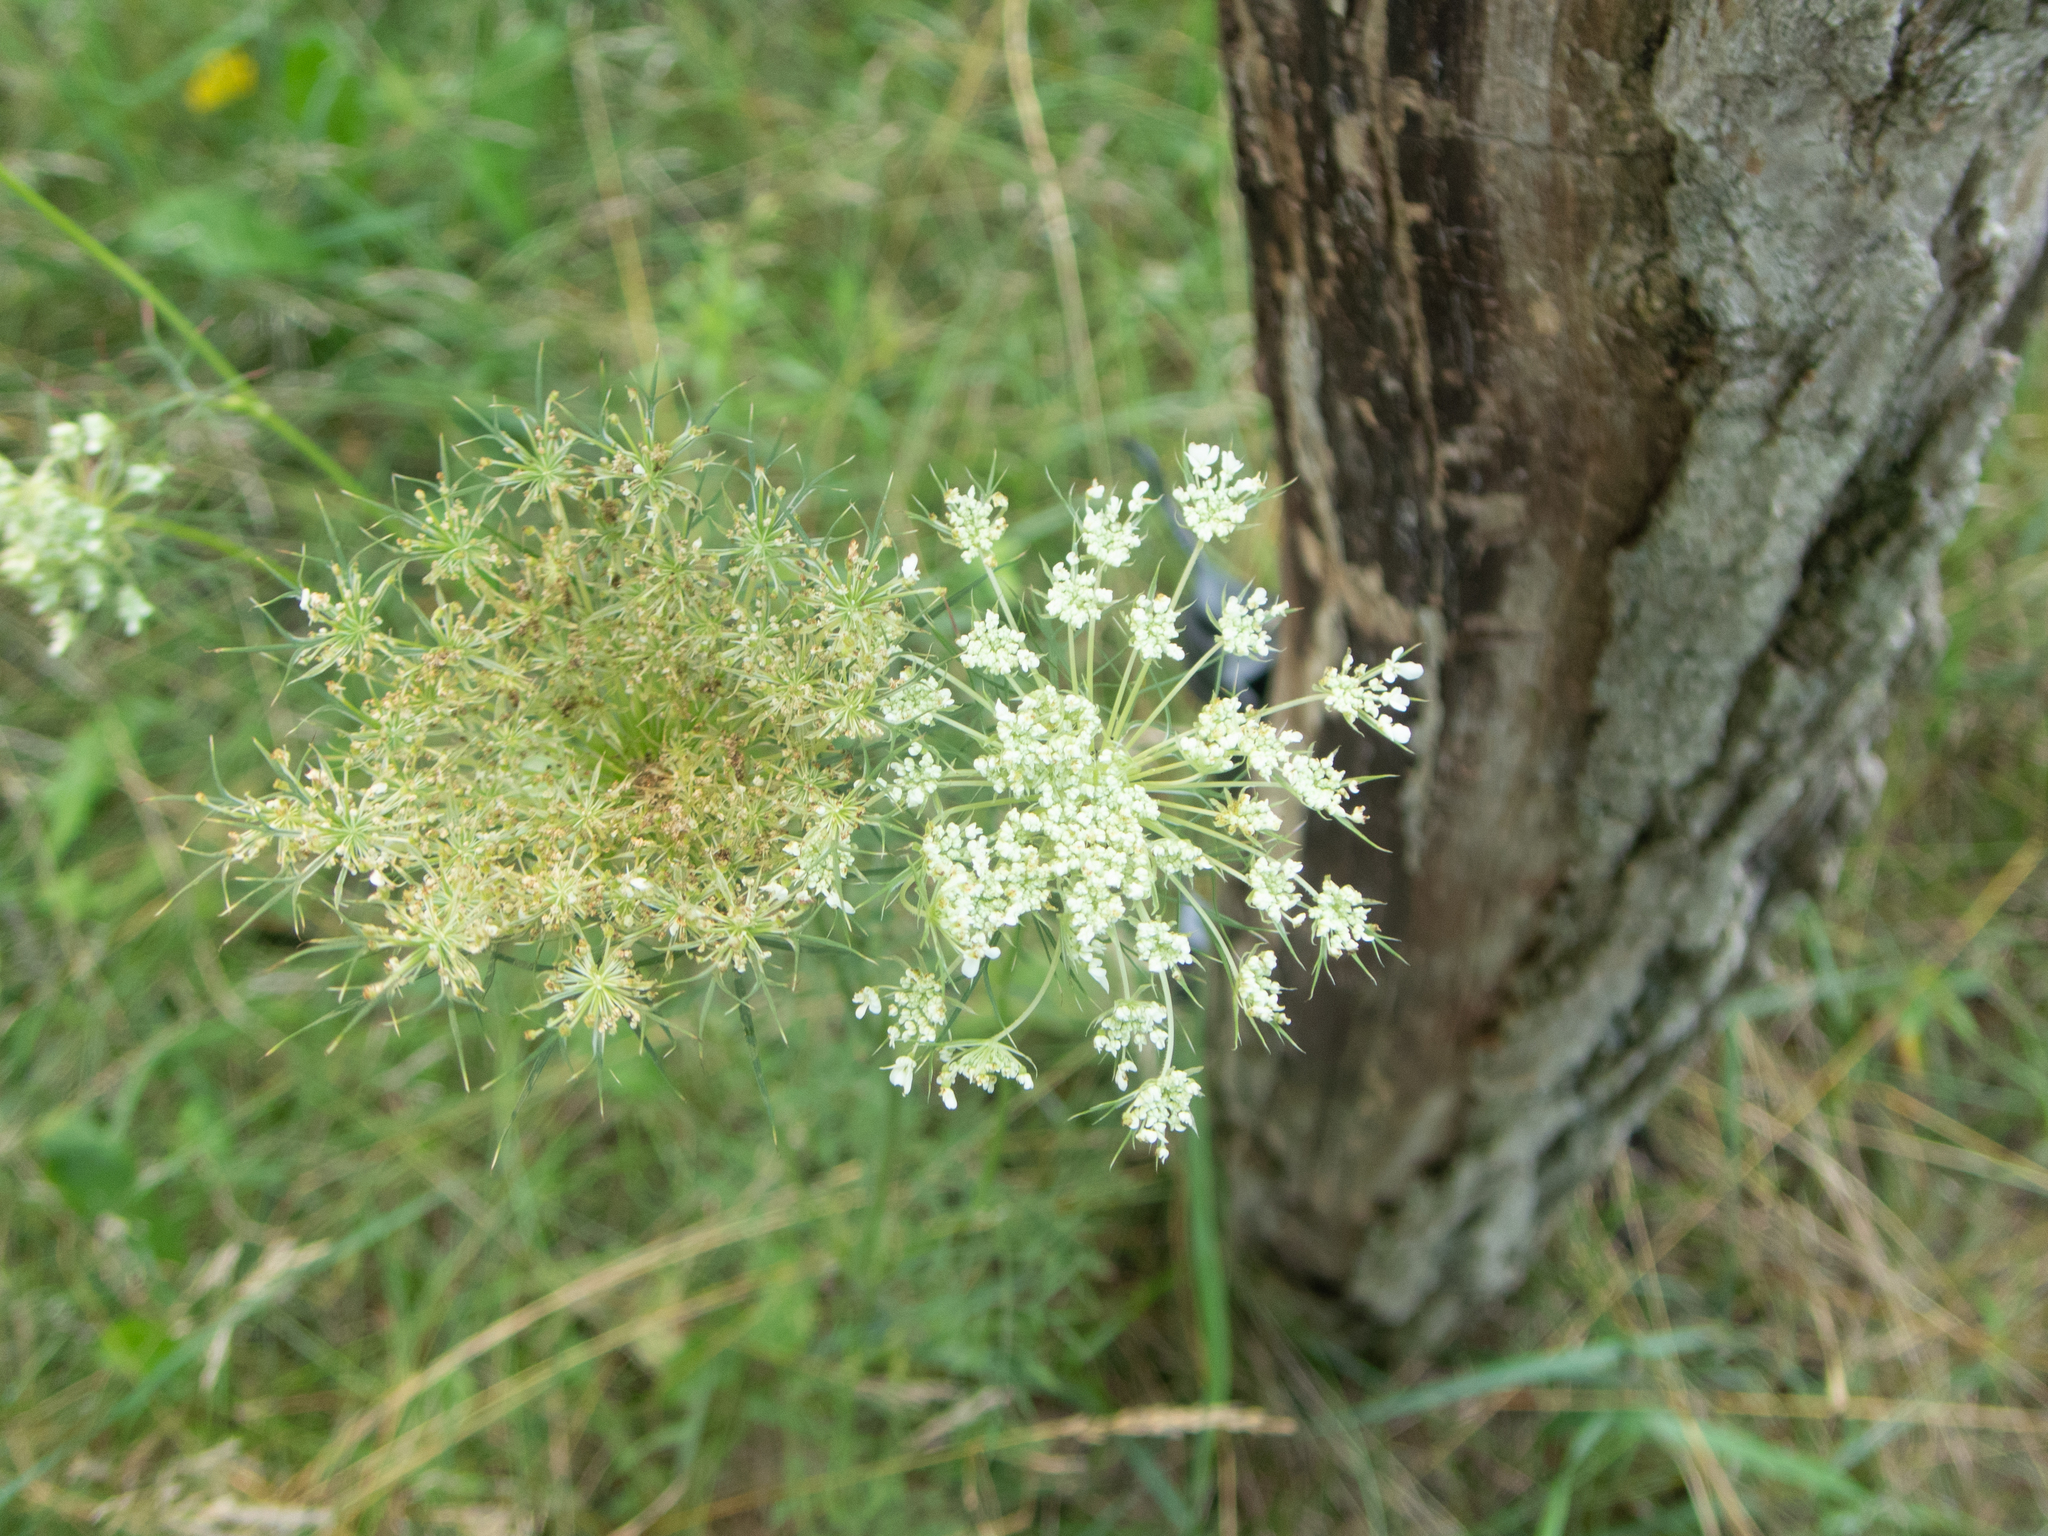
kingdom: Plantae
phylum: Tracheophyta
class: Magnoliopsida
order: Apiales
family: Apiaceae
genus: Daucus
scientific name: Daucus carota
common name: Wild carrot
